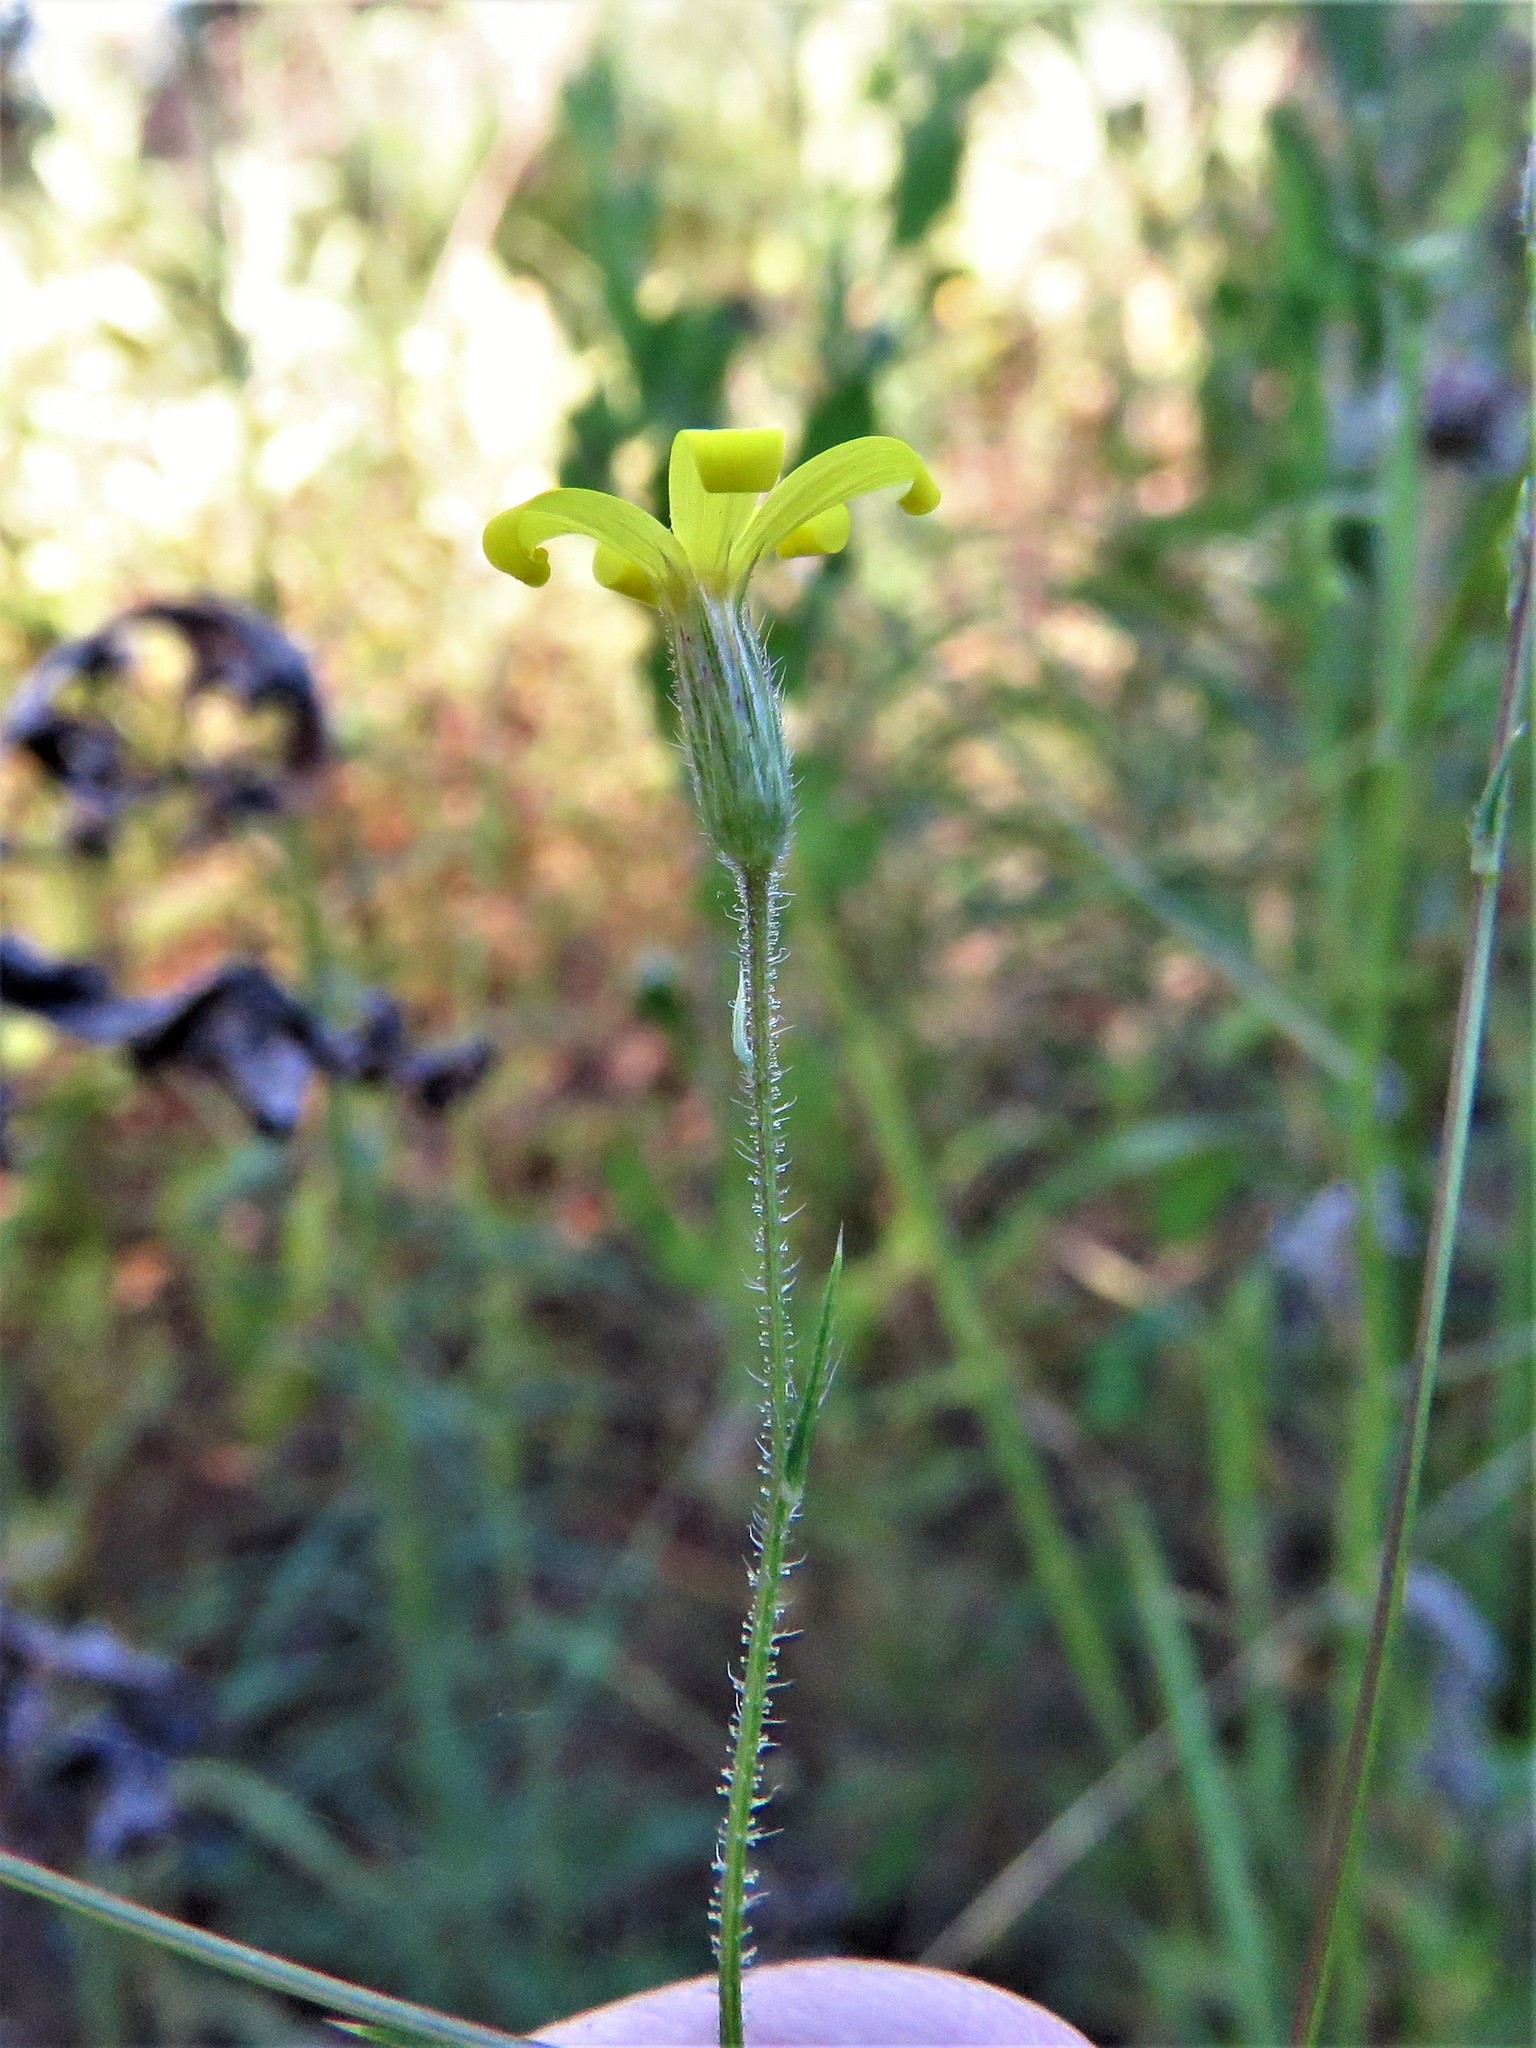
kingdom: Plantae
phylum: Tracheophyta
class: Magnoliopsida
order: Asterales
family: Asteraceae
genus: Croptilon
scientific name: Croptilon divaricatum
